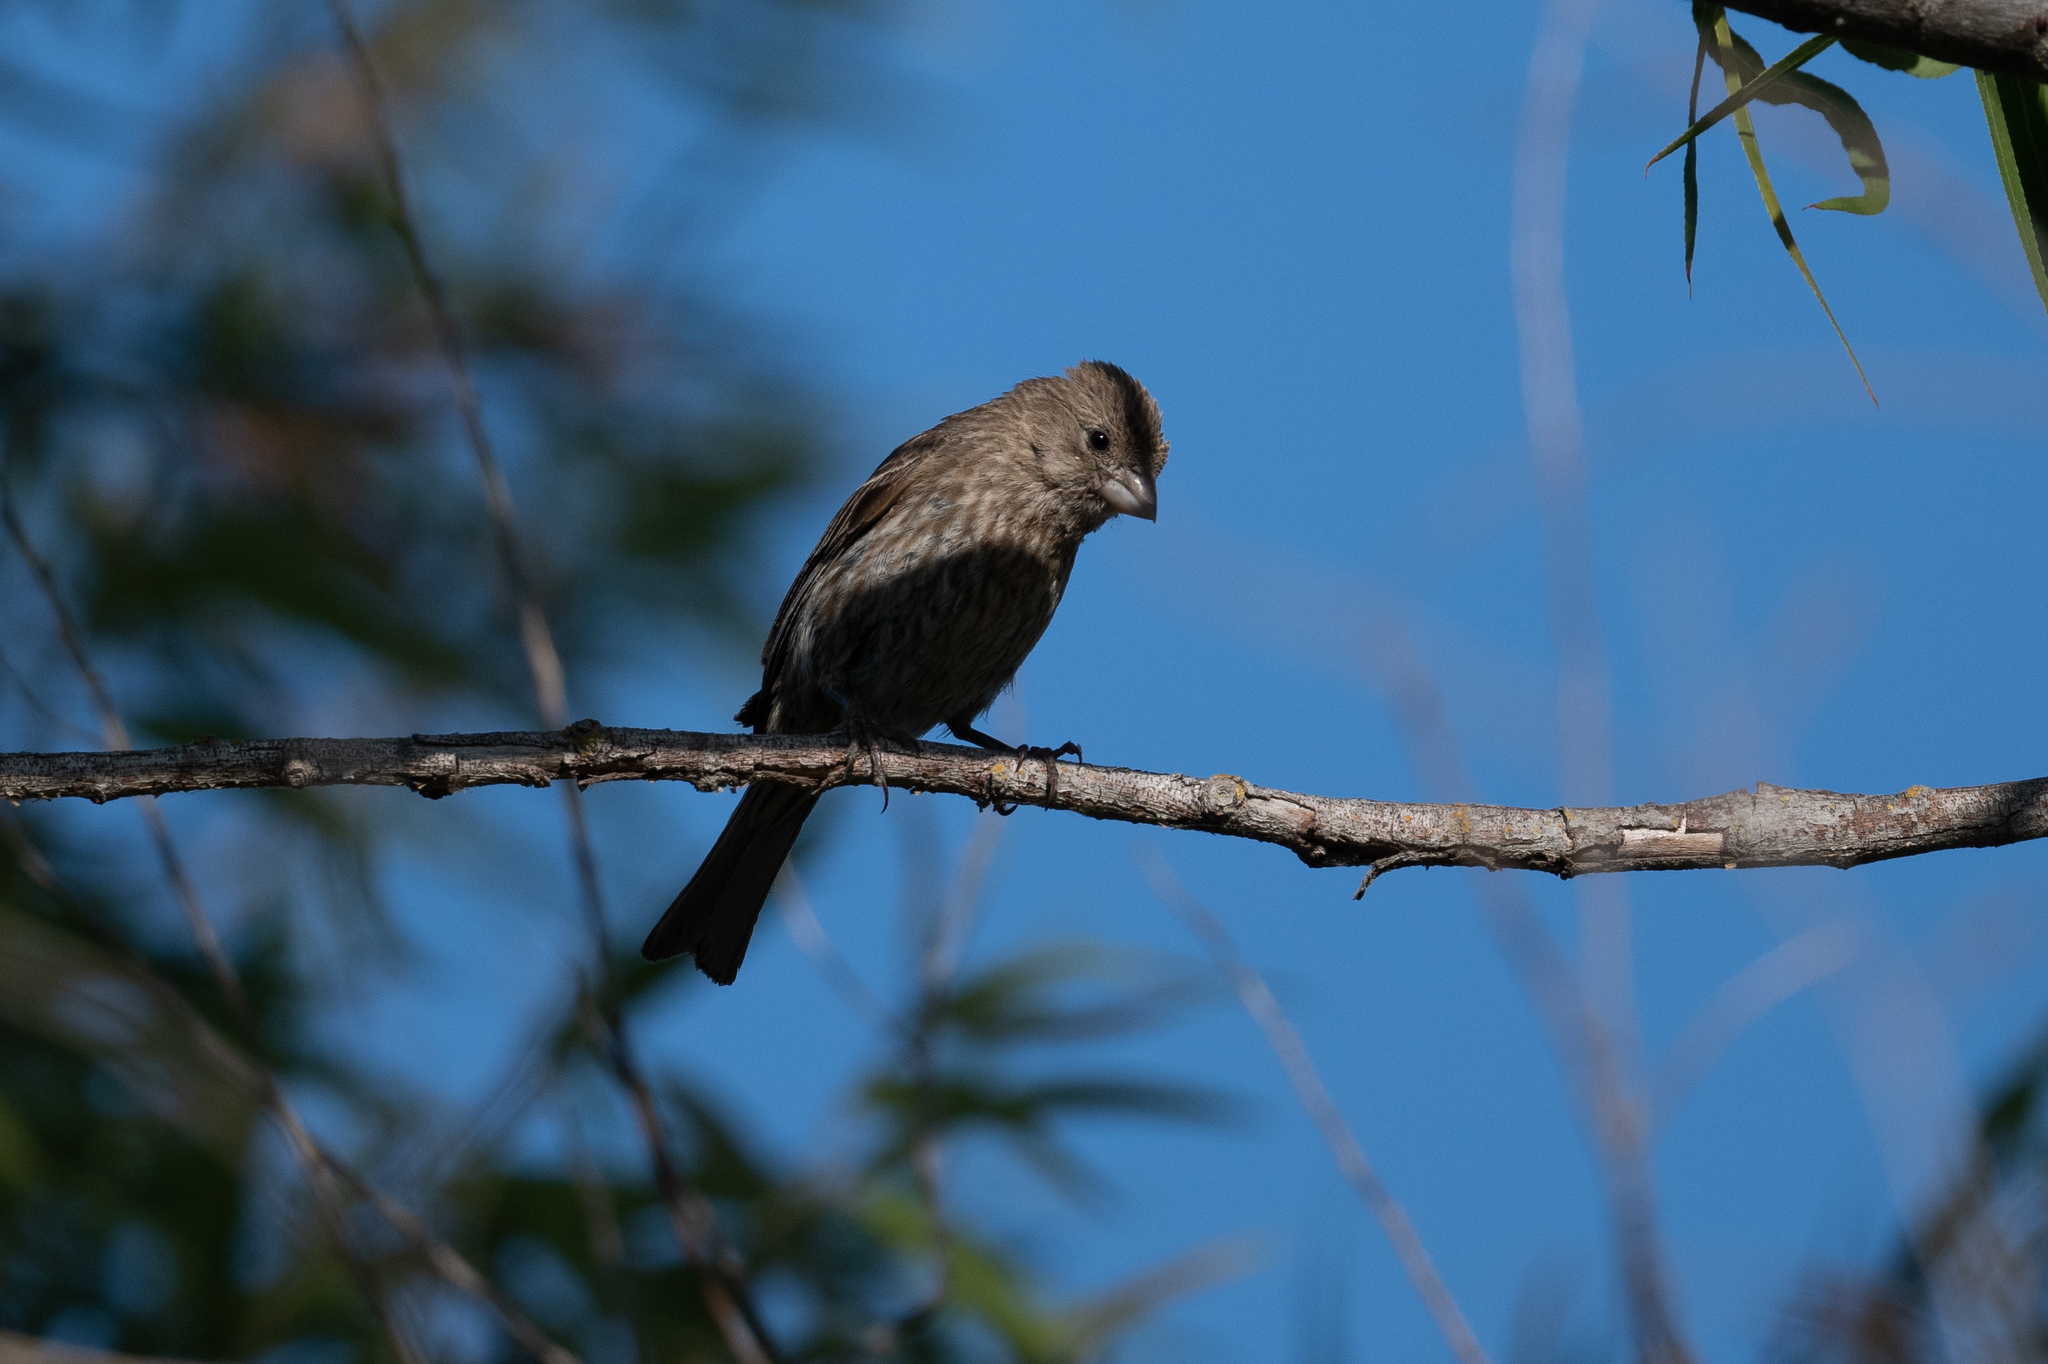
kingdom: Animalia
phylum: Chordata
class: Aves
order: Passeriformes
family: Fringillidae
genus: Haemorhous
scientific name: Haemorhous mexicanus
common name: House finch
